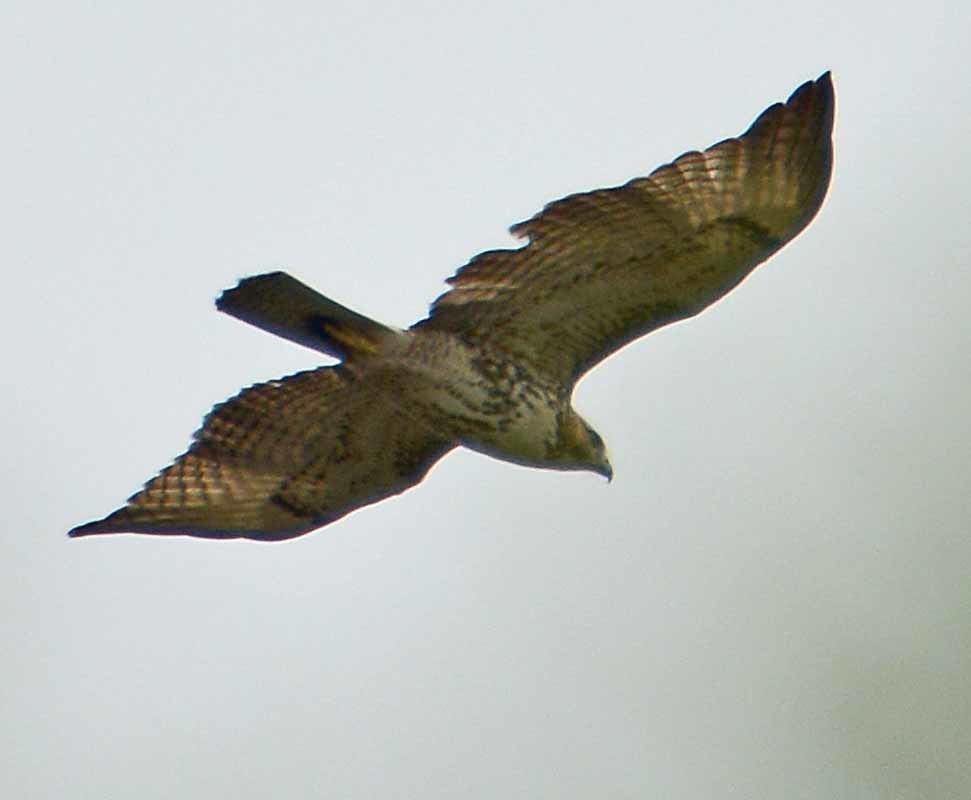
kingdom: Animalia
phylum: Chordata
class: Aves
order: Accipitriformes
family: Accipitridae
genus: Buteo
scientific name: Buteo jamaicensis
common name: Red-tailed hawk
